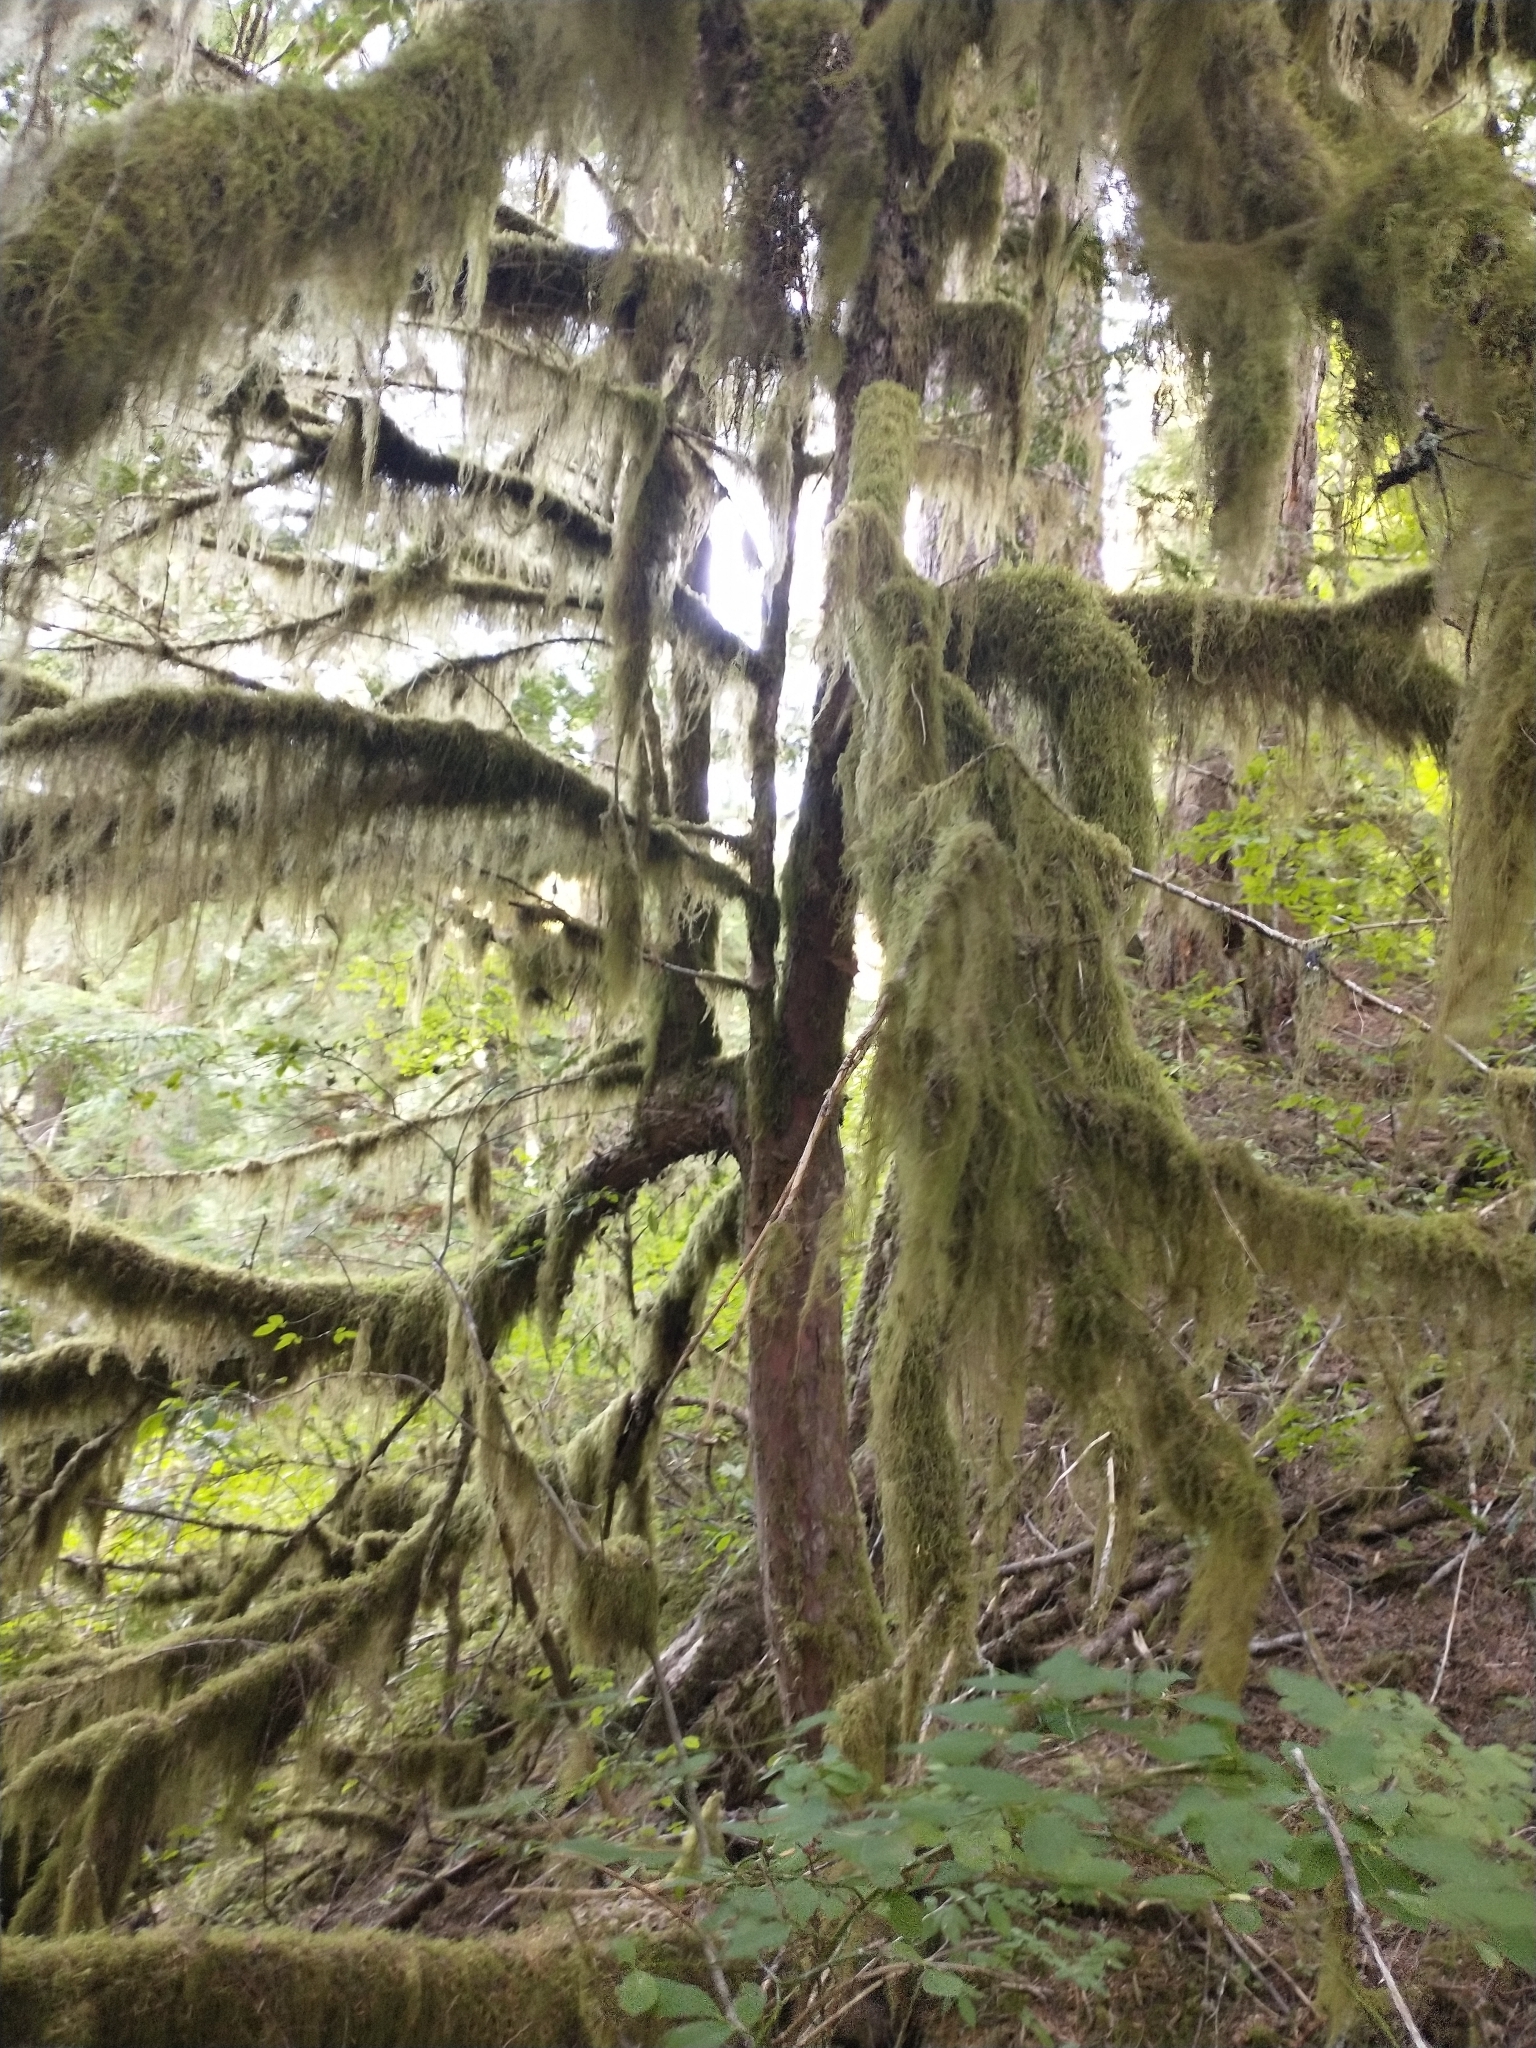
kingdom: Plantae
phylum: Tracheophyta
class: Pinopsida
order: Pinales
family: Taxaceae
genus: Taxus
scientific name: Taxus brevifolia
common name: Pacific yew
